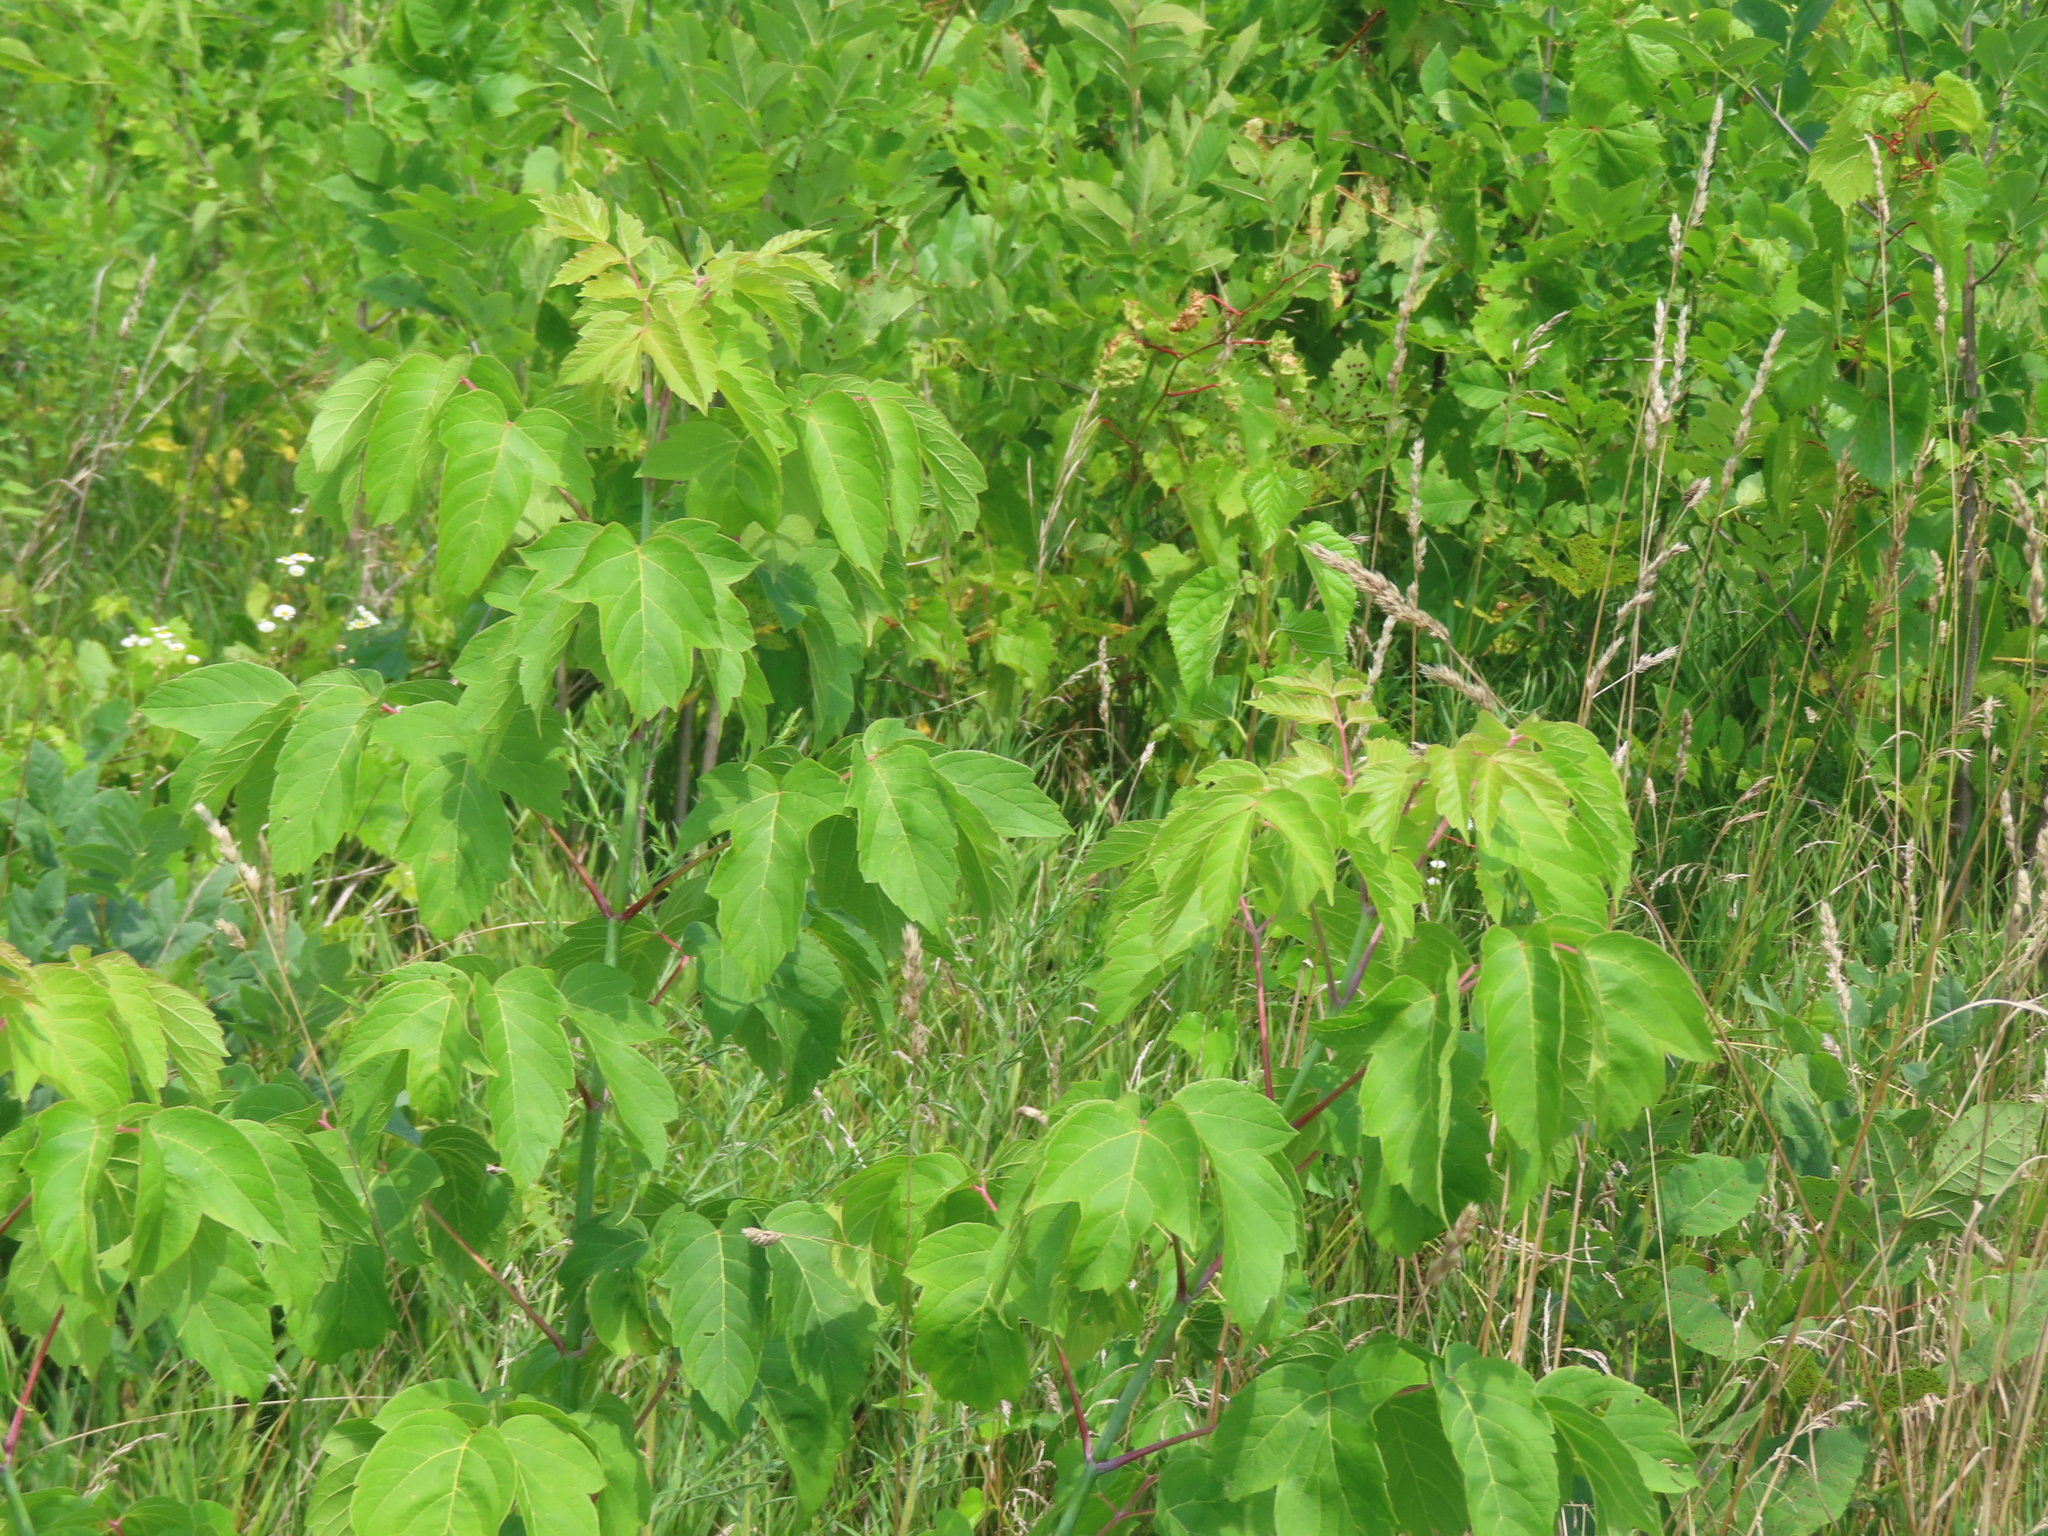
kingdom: Plantae
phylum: Tracheophyta
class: Magnoliopsida
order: Sapindales
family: Sapindaceae
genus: Acer
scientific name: Acer negundo
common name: Ashleaf maple
